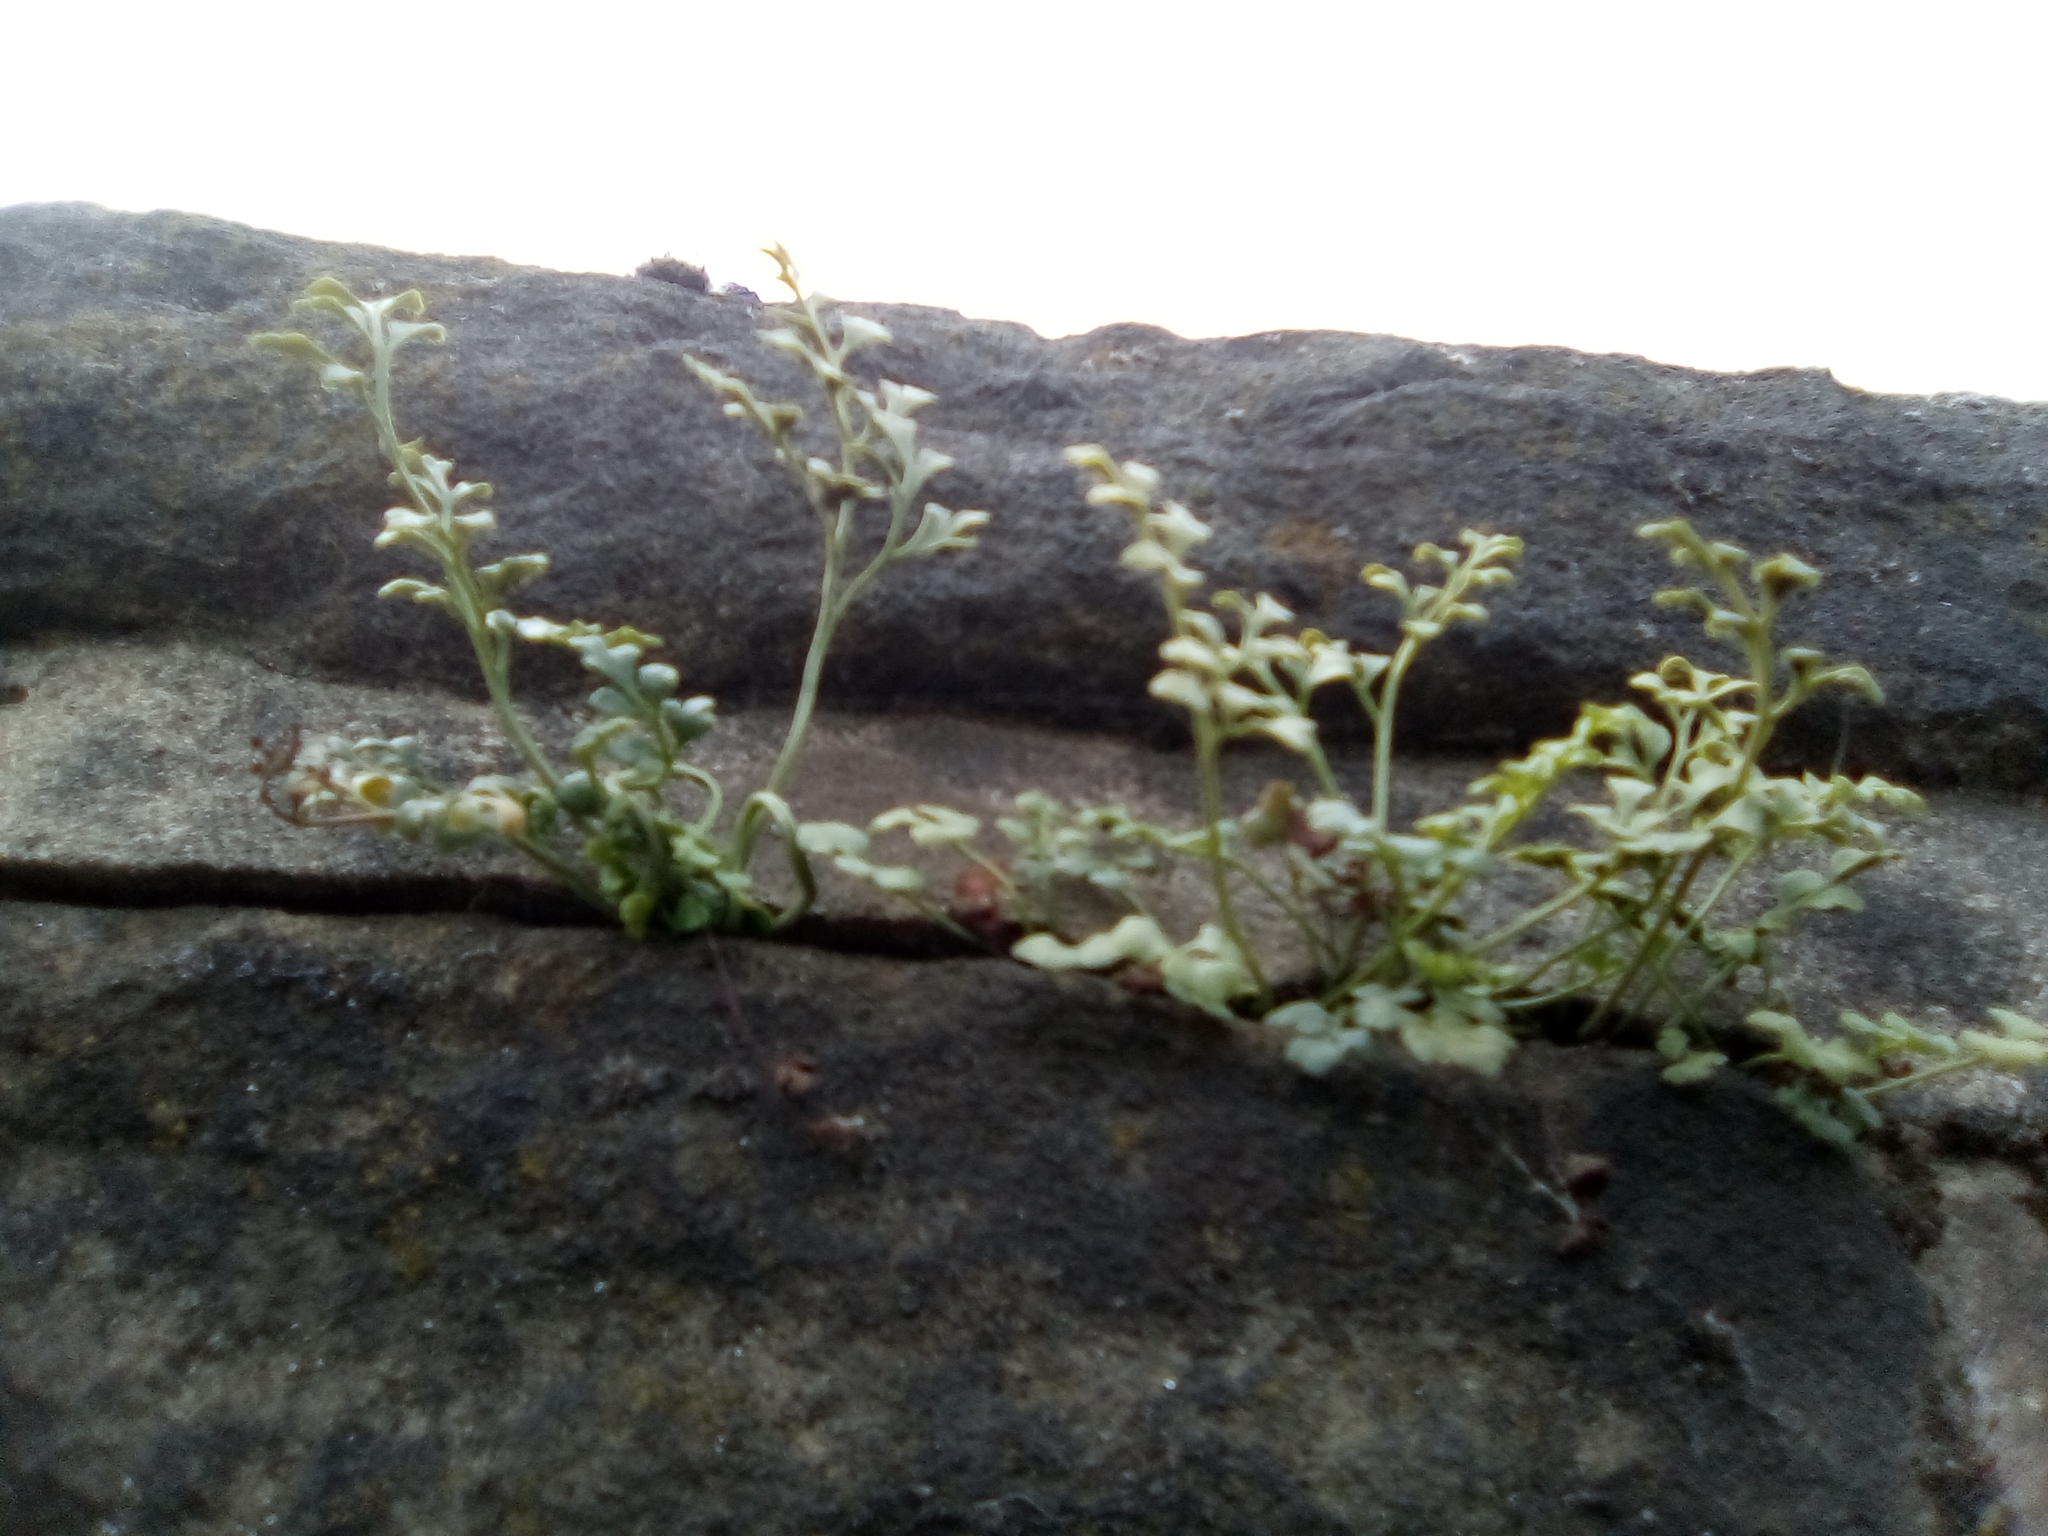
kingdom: Plantae
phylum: Tracheophyta
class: Polypodiopsida
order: Polypodiales
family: Aspleniaceae
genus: Asplenium
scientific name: Asplenium ruta-muraria
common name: Wall-rue
